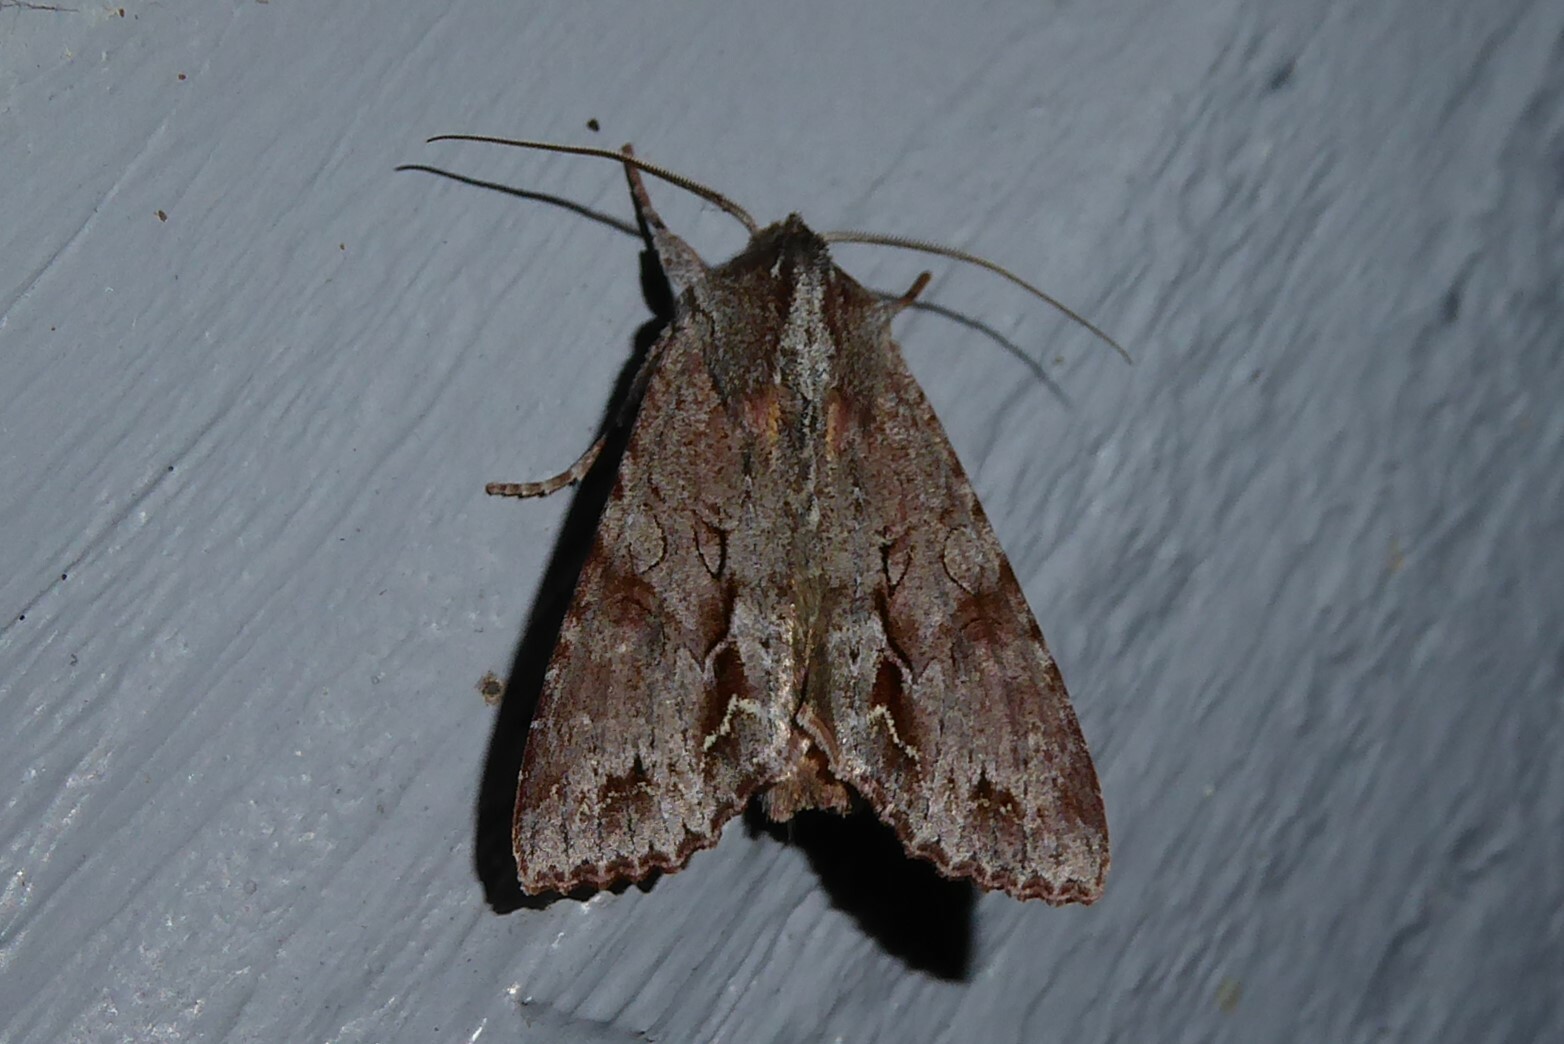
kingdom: Animalia
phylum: Arthropoda
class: Insecta
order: Lepidoptera
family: Noctuidae
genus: Ichneutica
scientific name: Ichneutica
